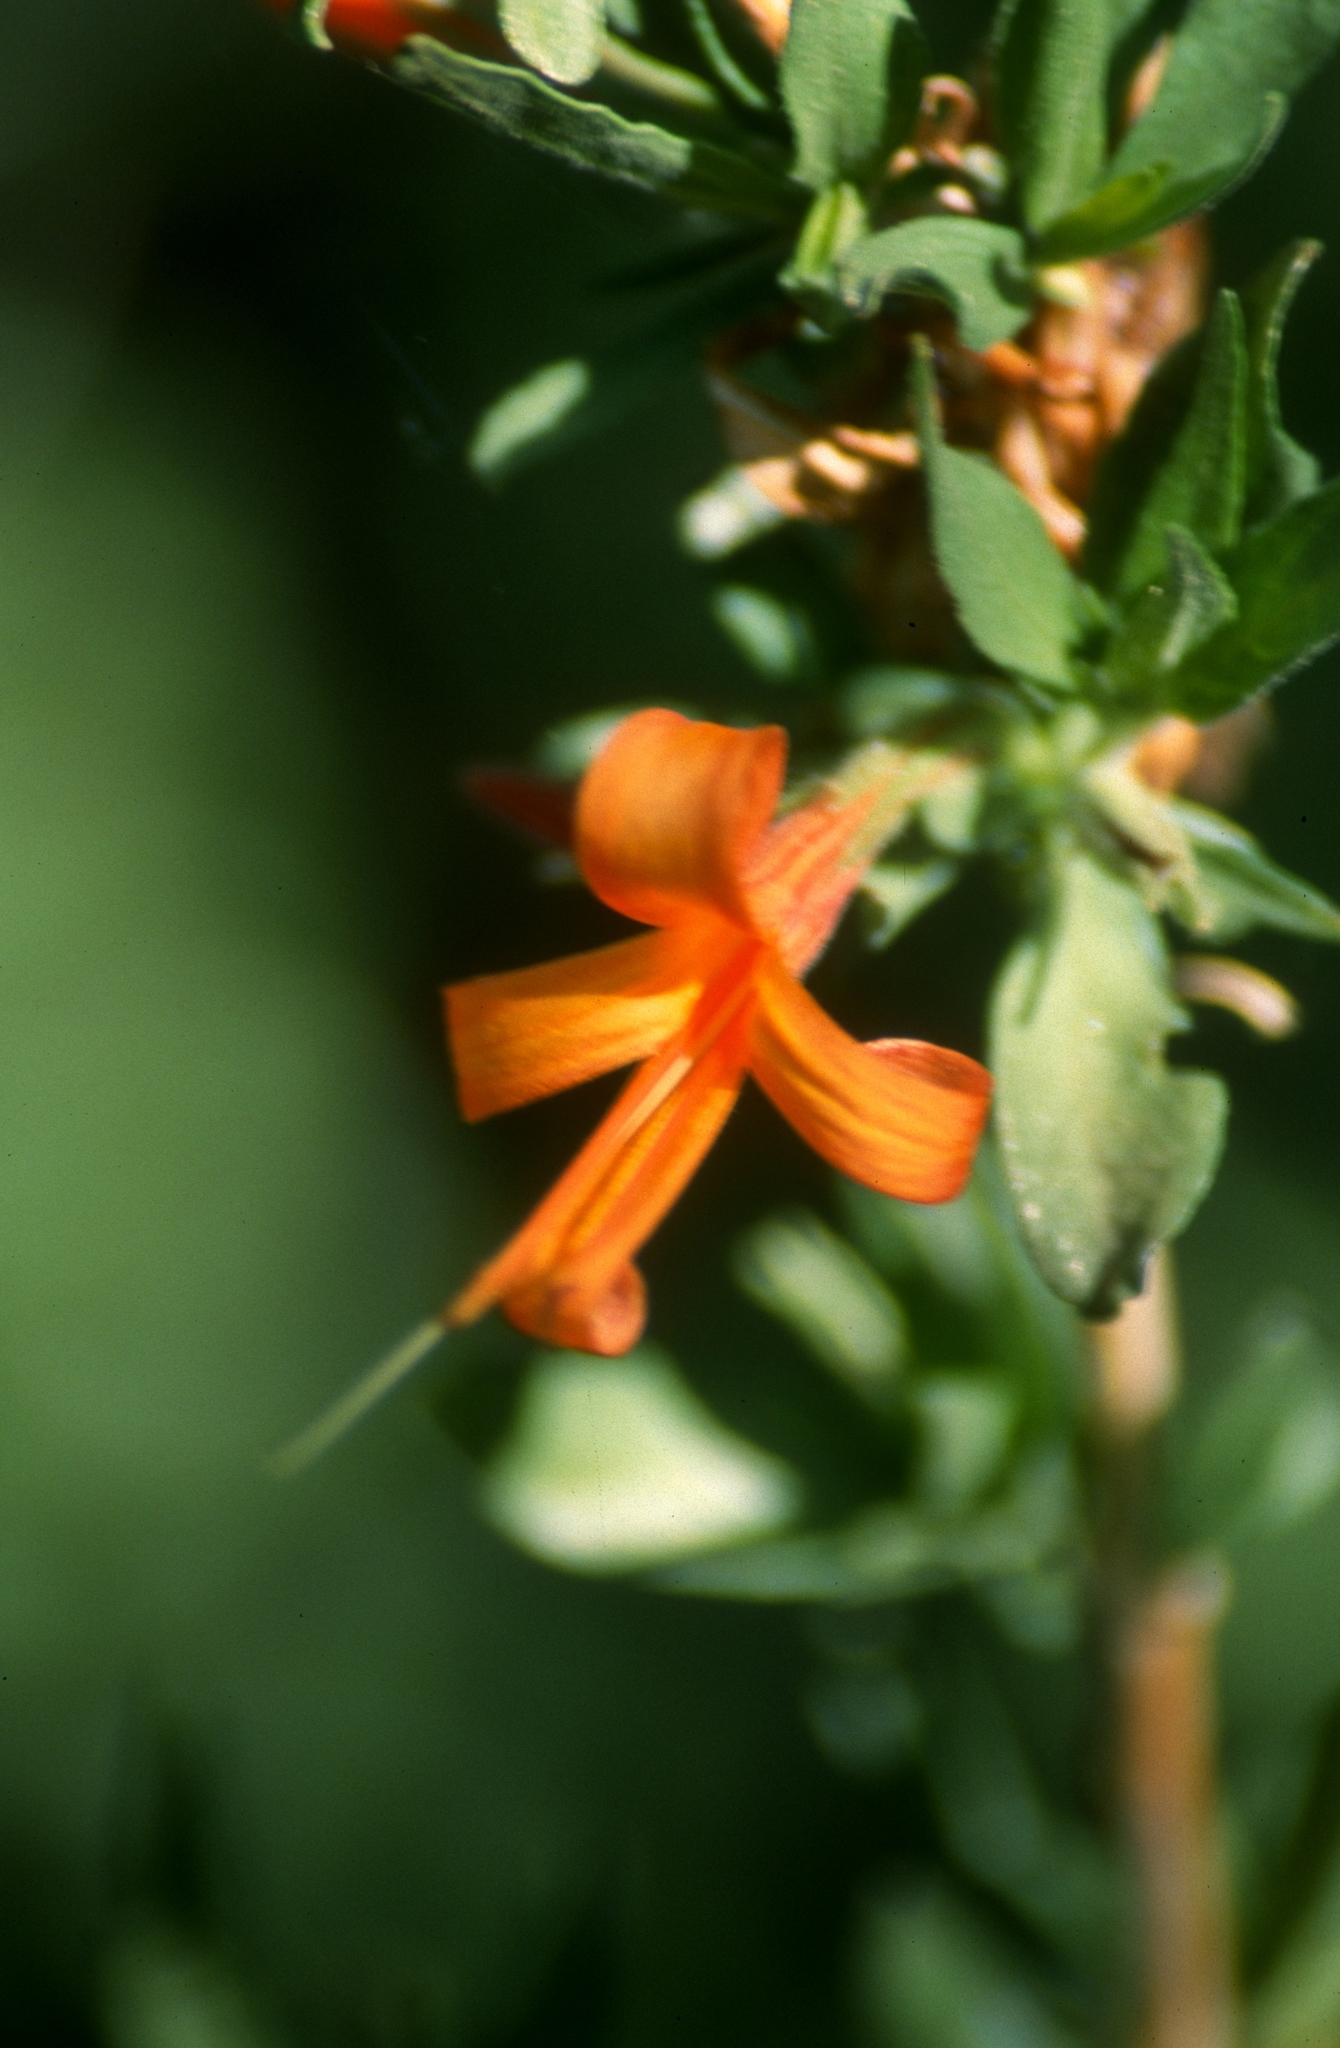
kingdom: Plantae
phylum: Tracheophyta
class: Magnoliopsida
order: Lamiales
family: Acanthaceae
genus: Anisacanthus
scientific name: Anisacanthus thurberi
